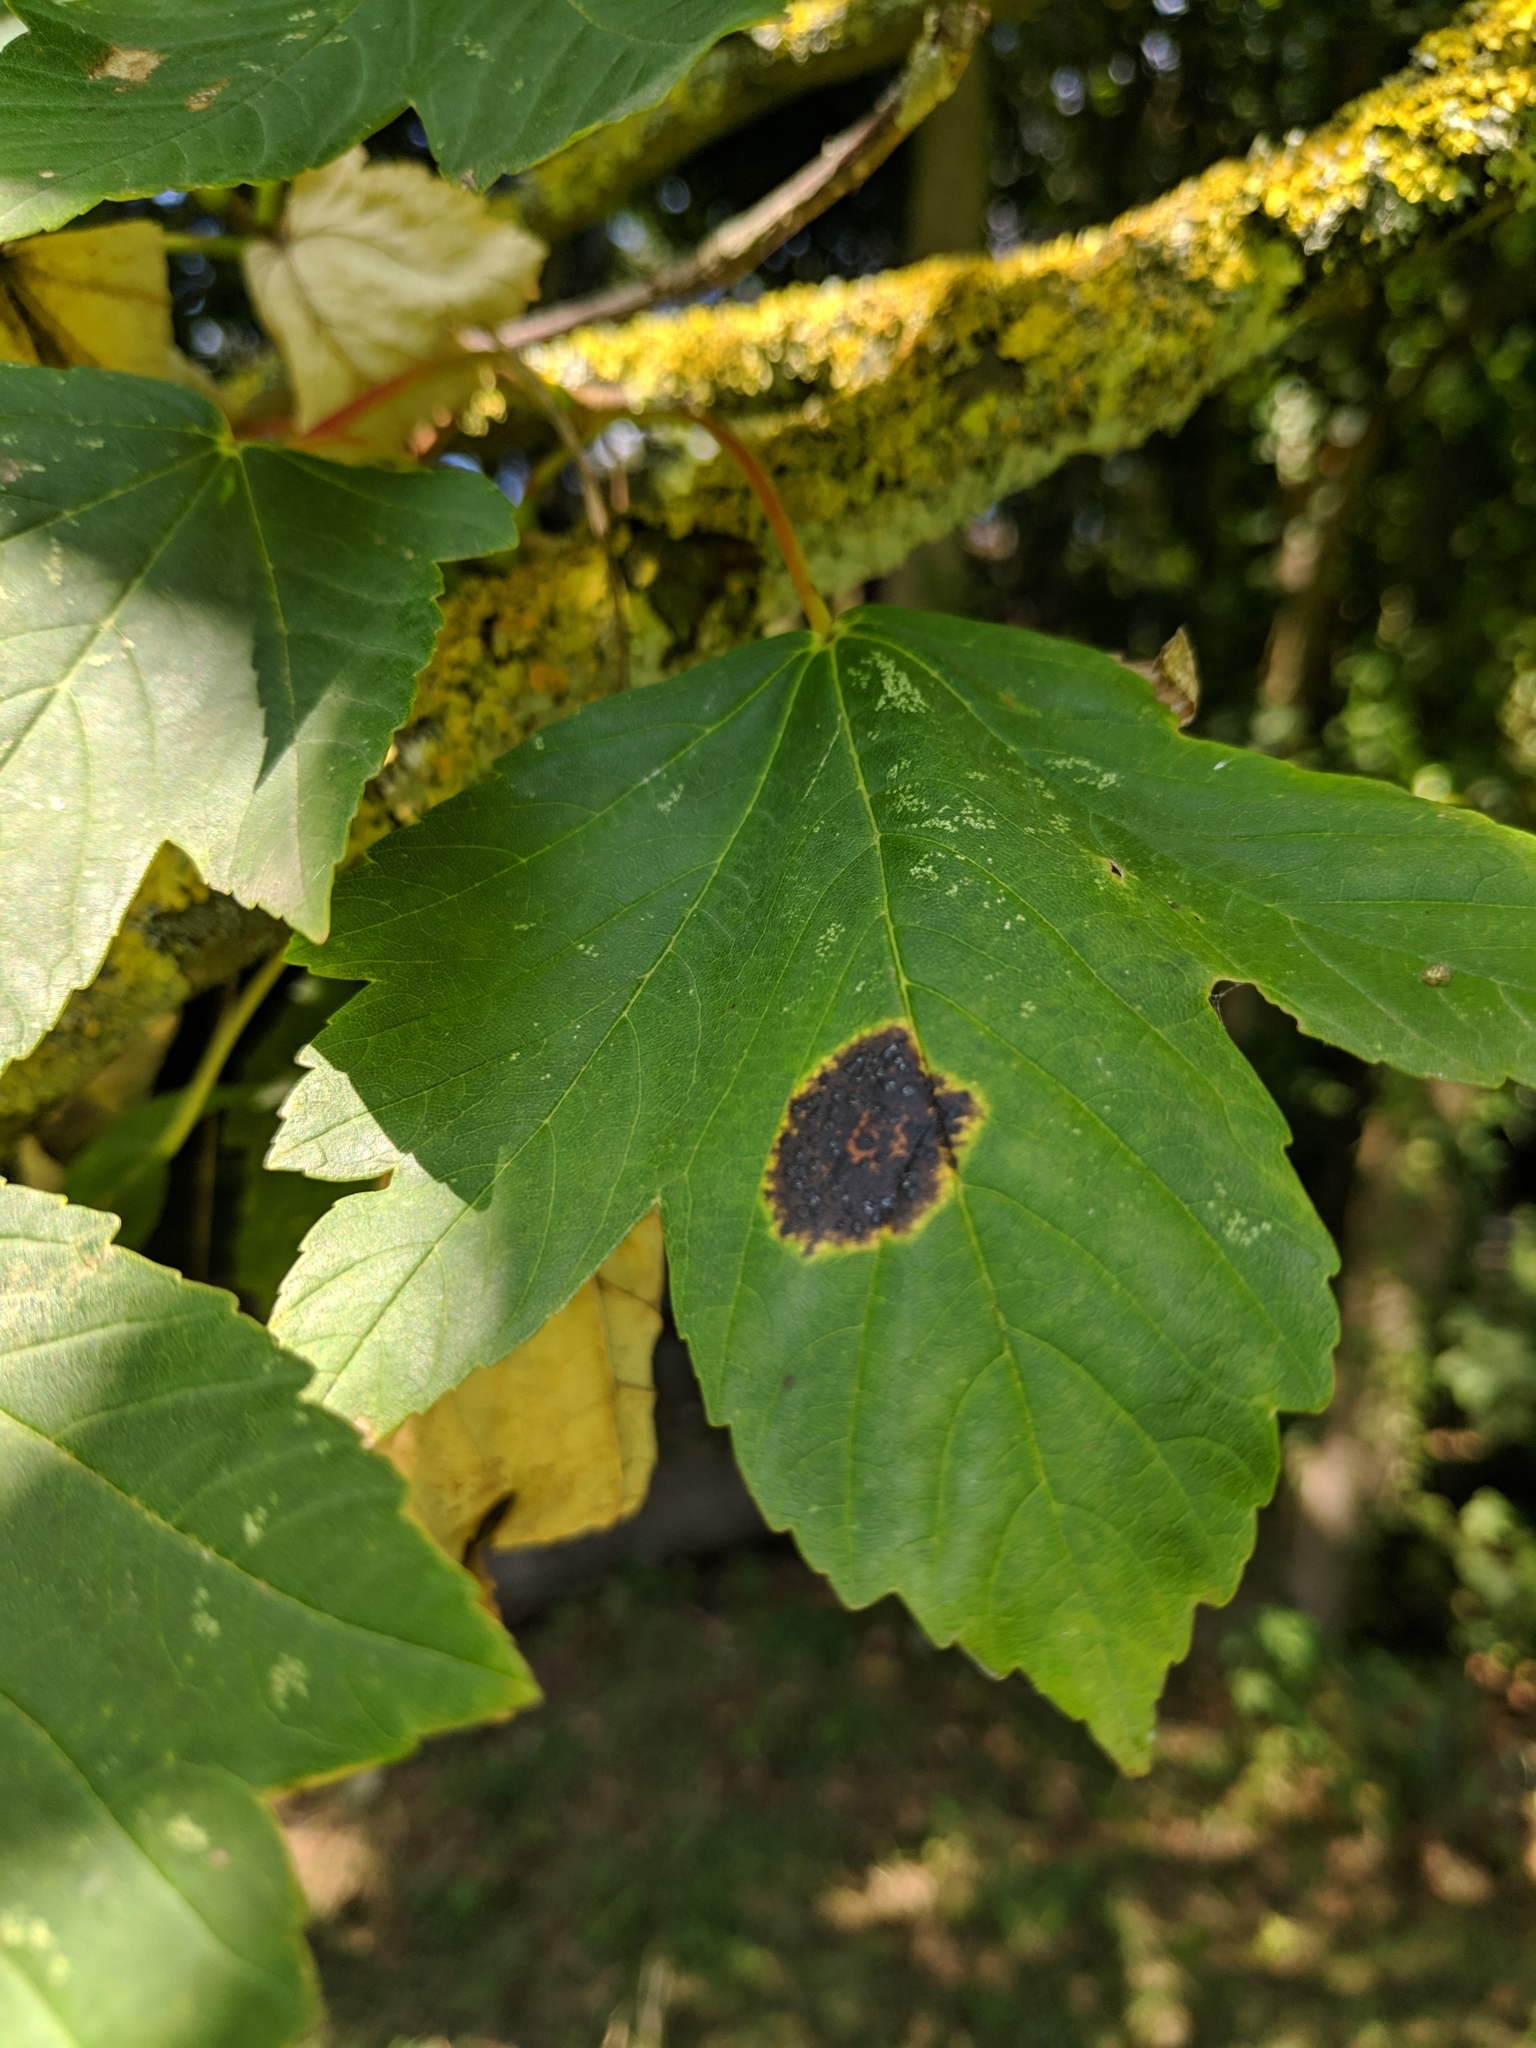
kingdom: Fungi
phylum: Ascomycota
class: Leotiomycetes
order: Rhytismatales
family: Rhytismataceae
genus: Rhytisma
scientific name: Rhytisma acerinum
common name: European tar spot
